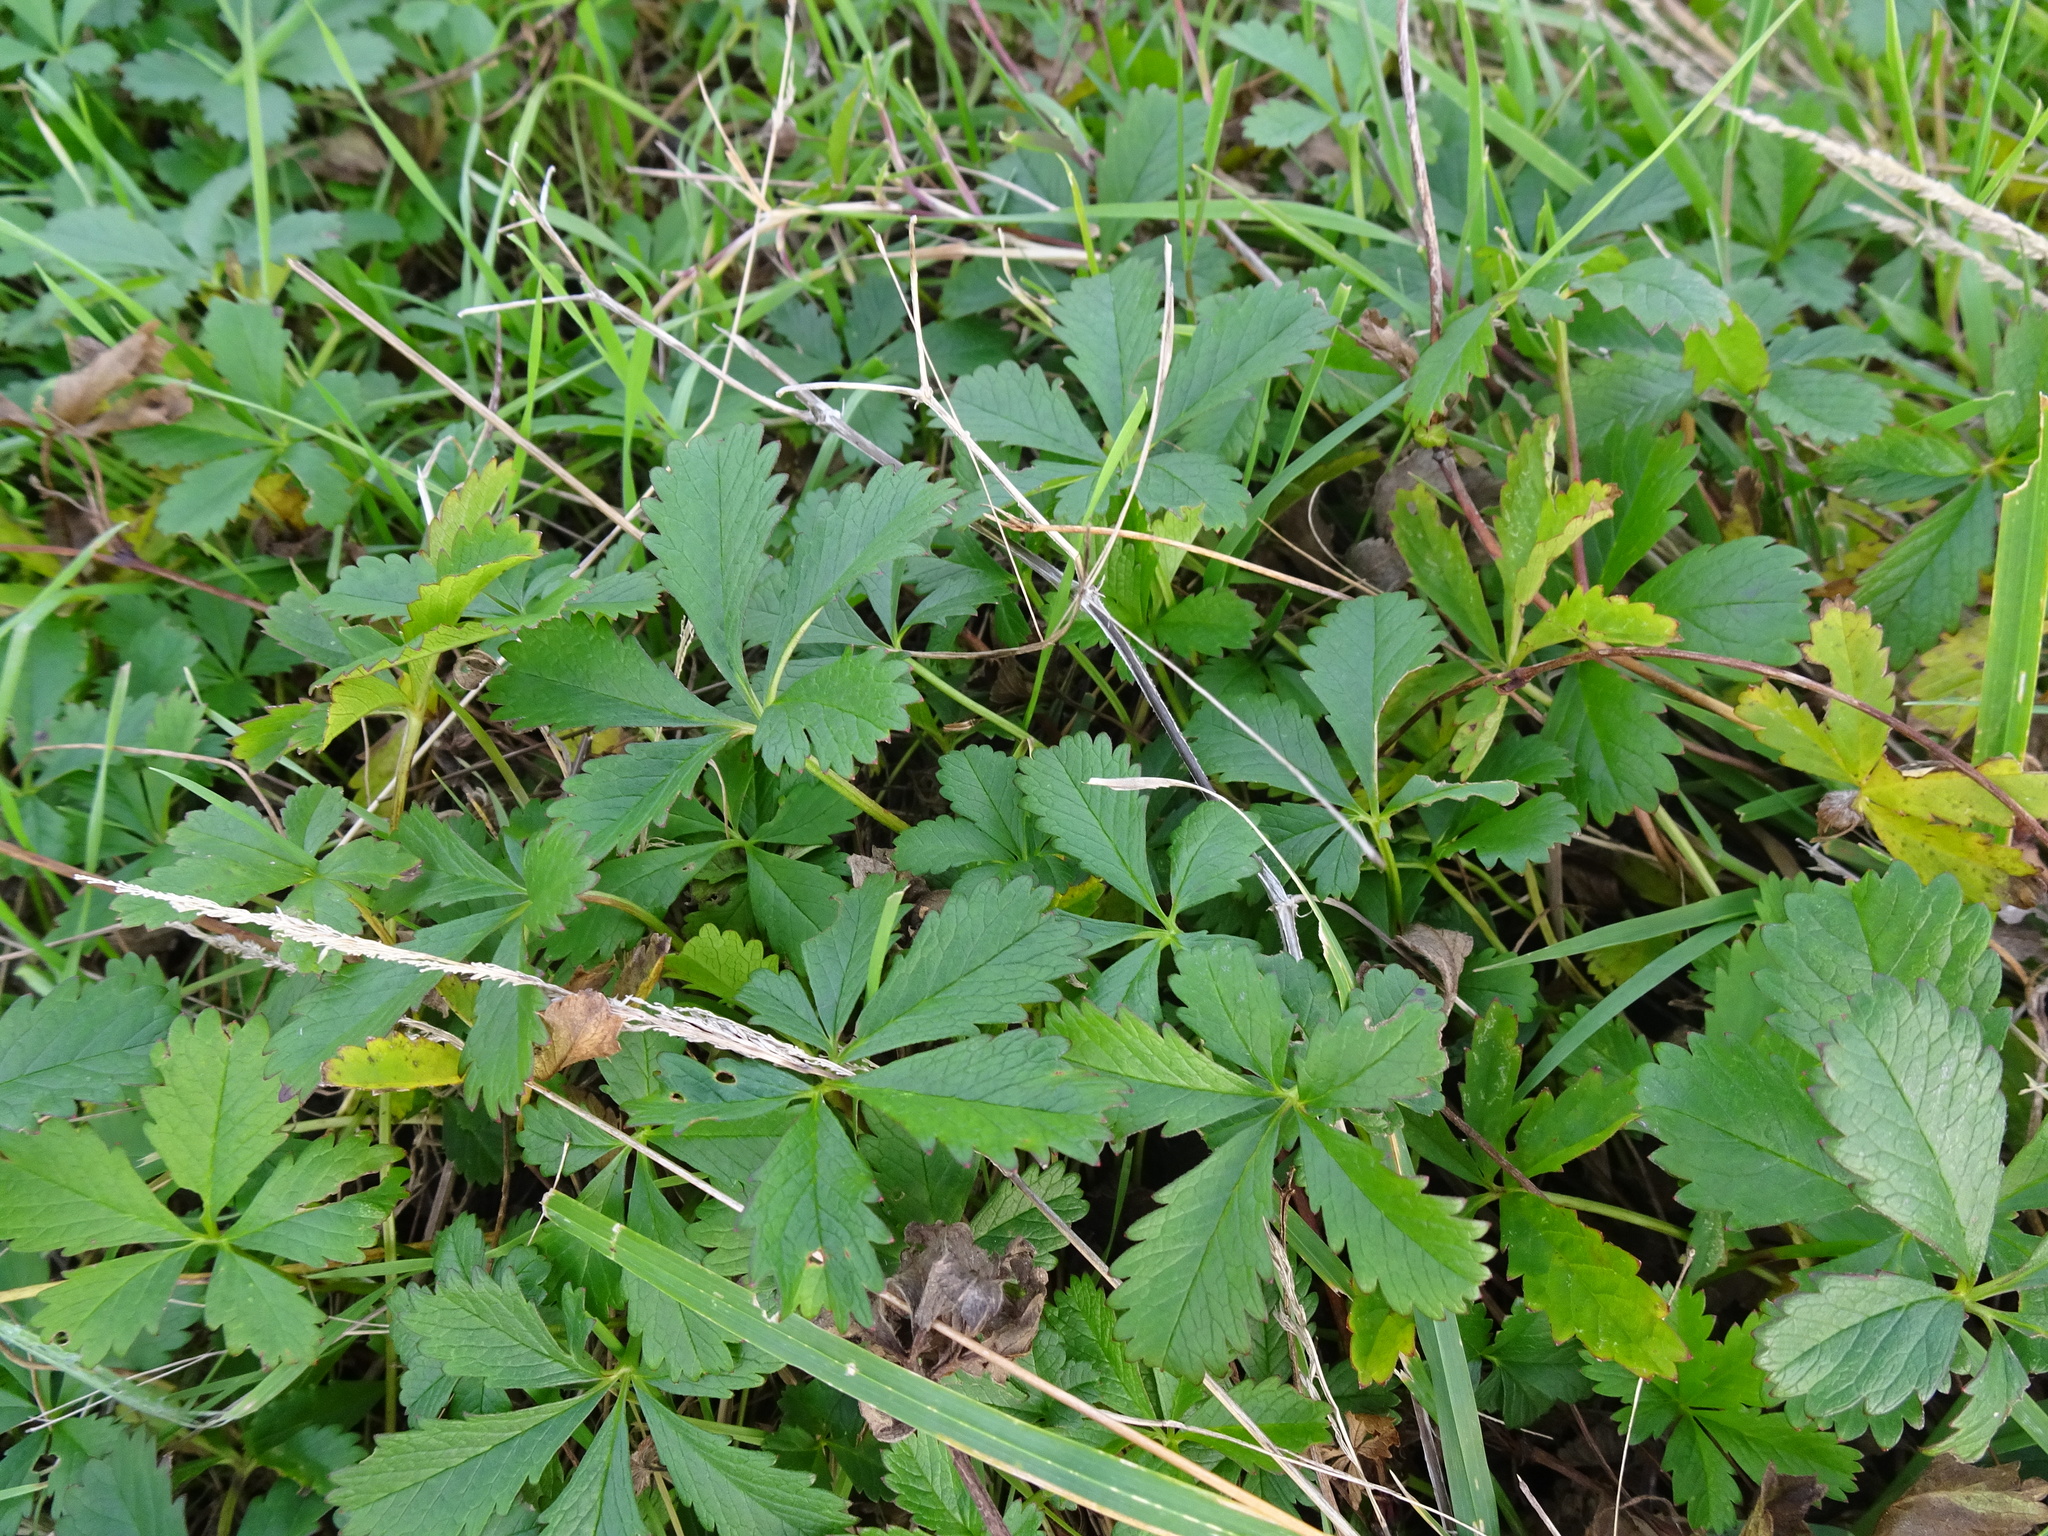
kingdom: Plantae
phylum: Tracheophyta
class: Magnoliopsida
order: Rosales
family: Rosaceae
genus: Potentilla
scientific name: Potentilla reptans
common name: Creeping cinquefoil
